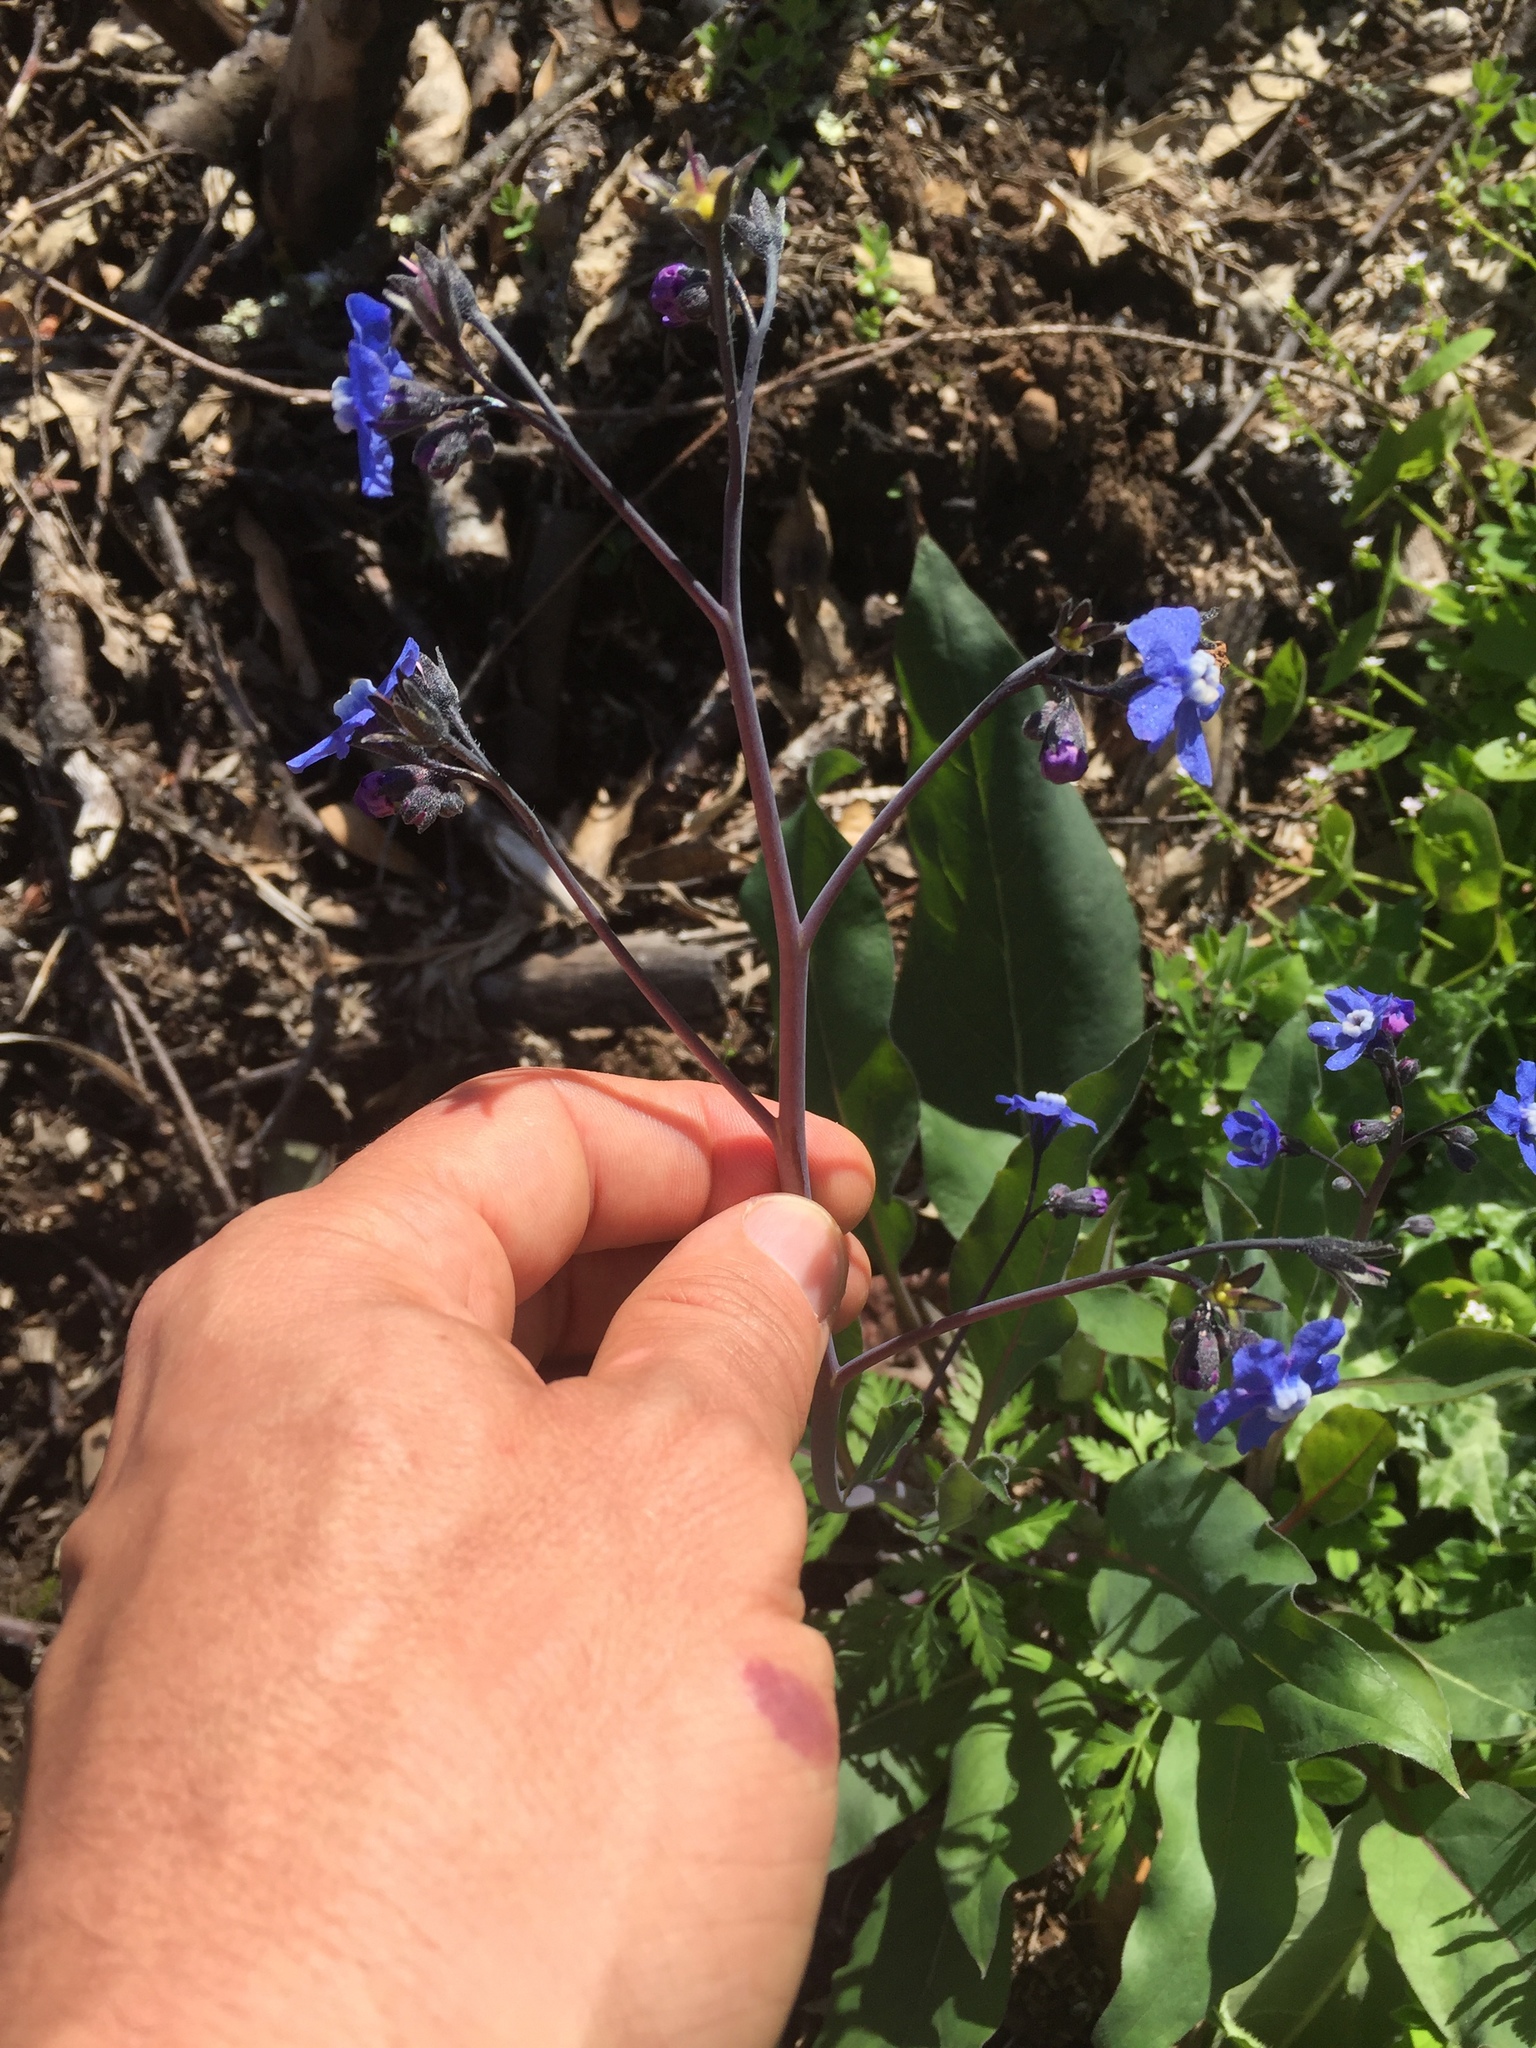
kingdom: Plantae
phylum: Tracheophyta
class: Magnoliopsida
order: Boraginales
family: Boraginaceae
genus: Adelinia
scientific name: Adelinia grande
